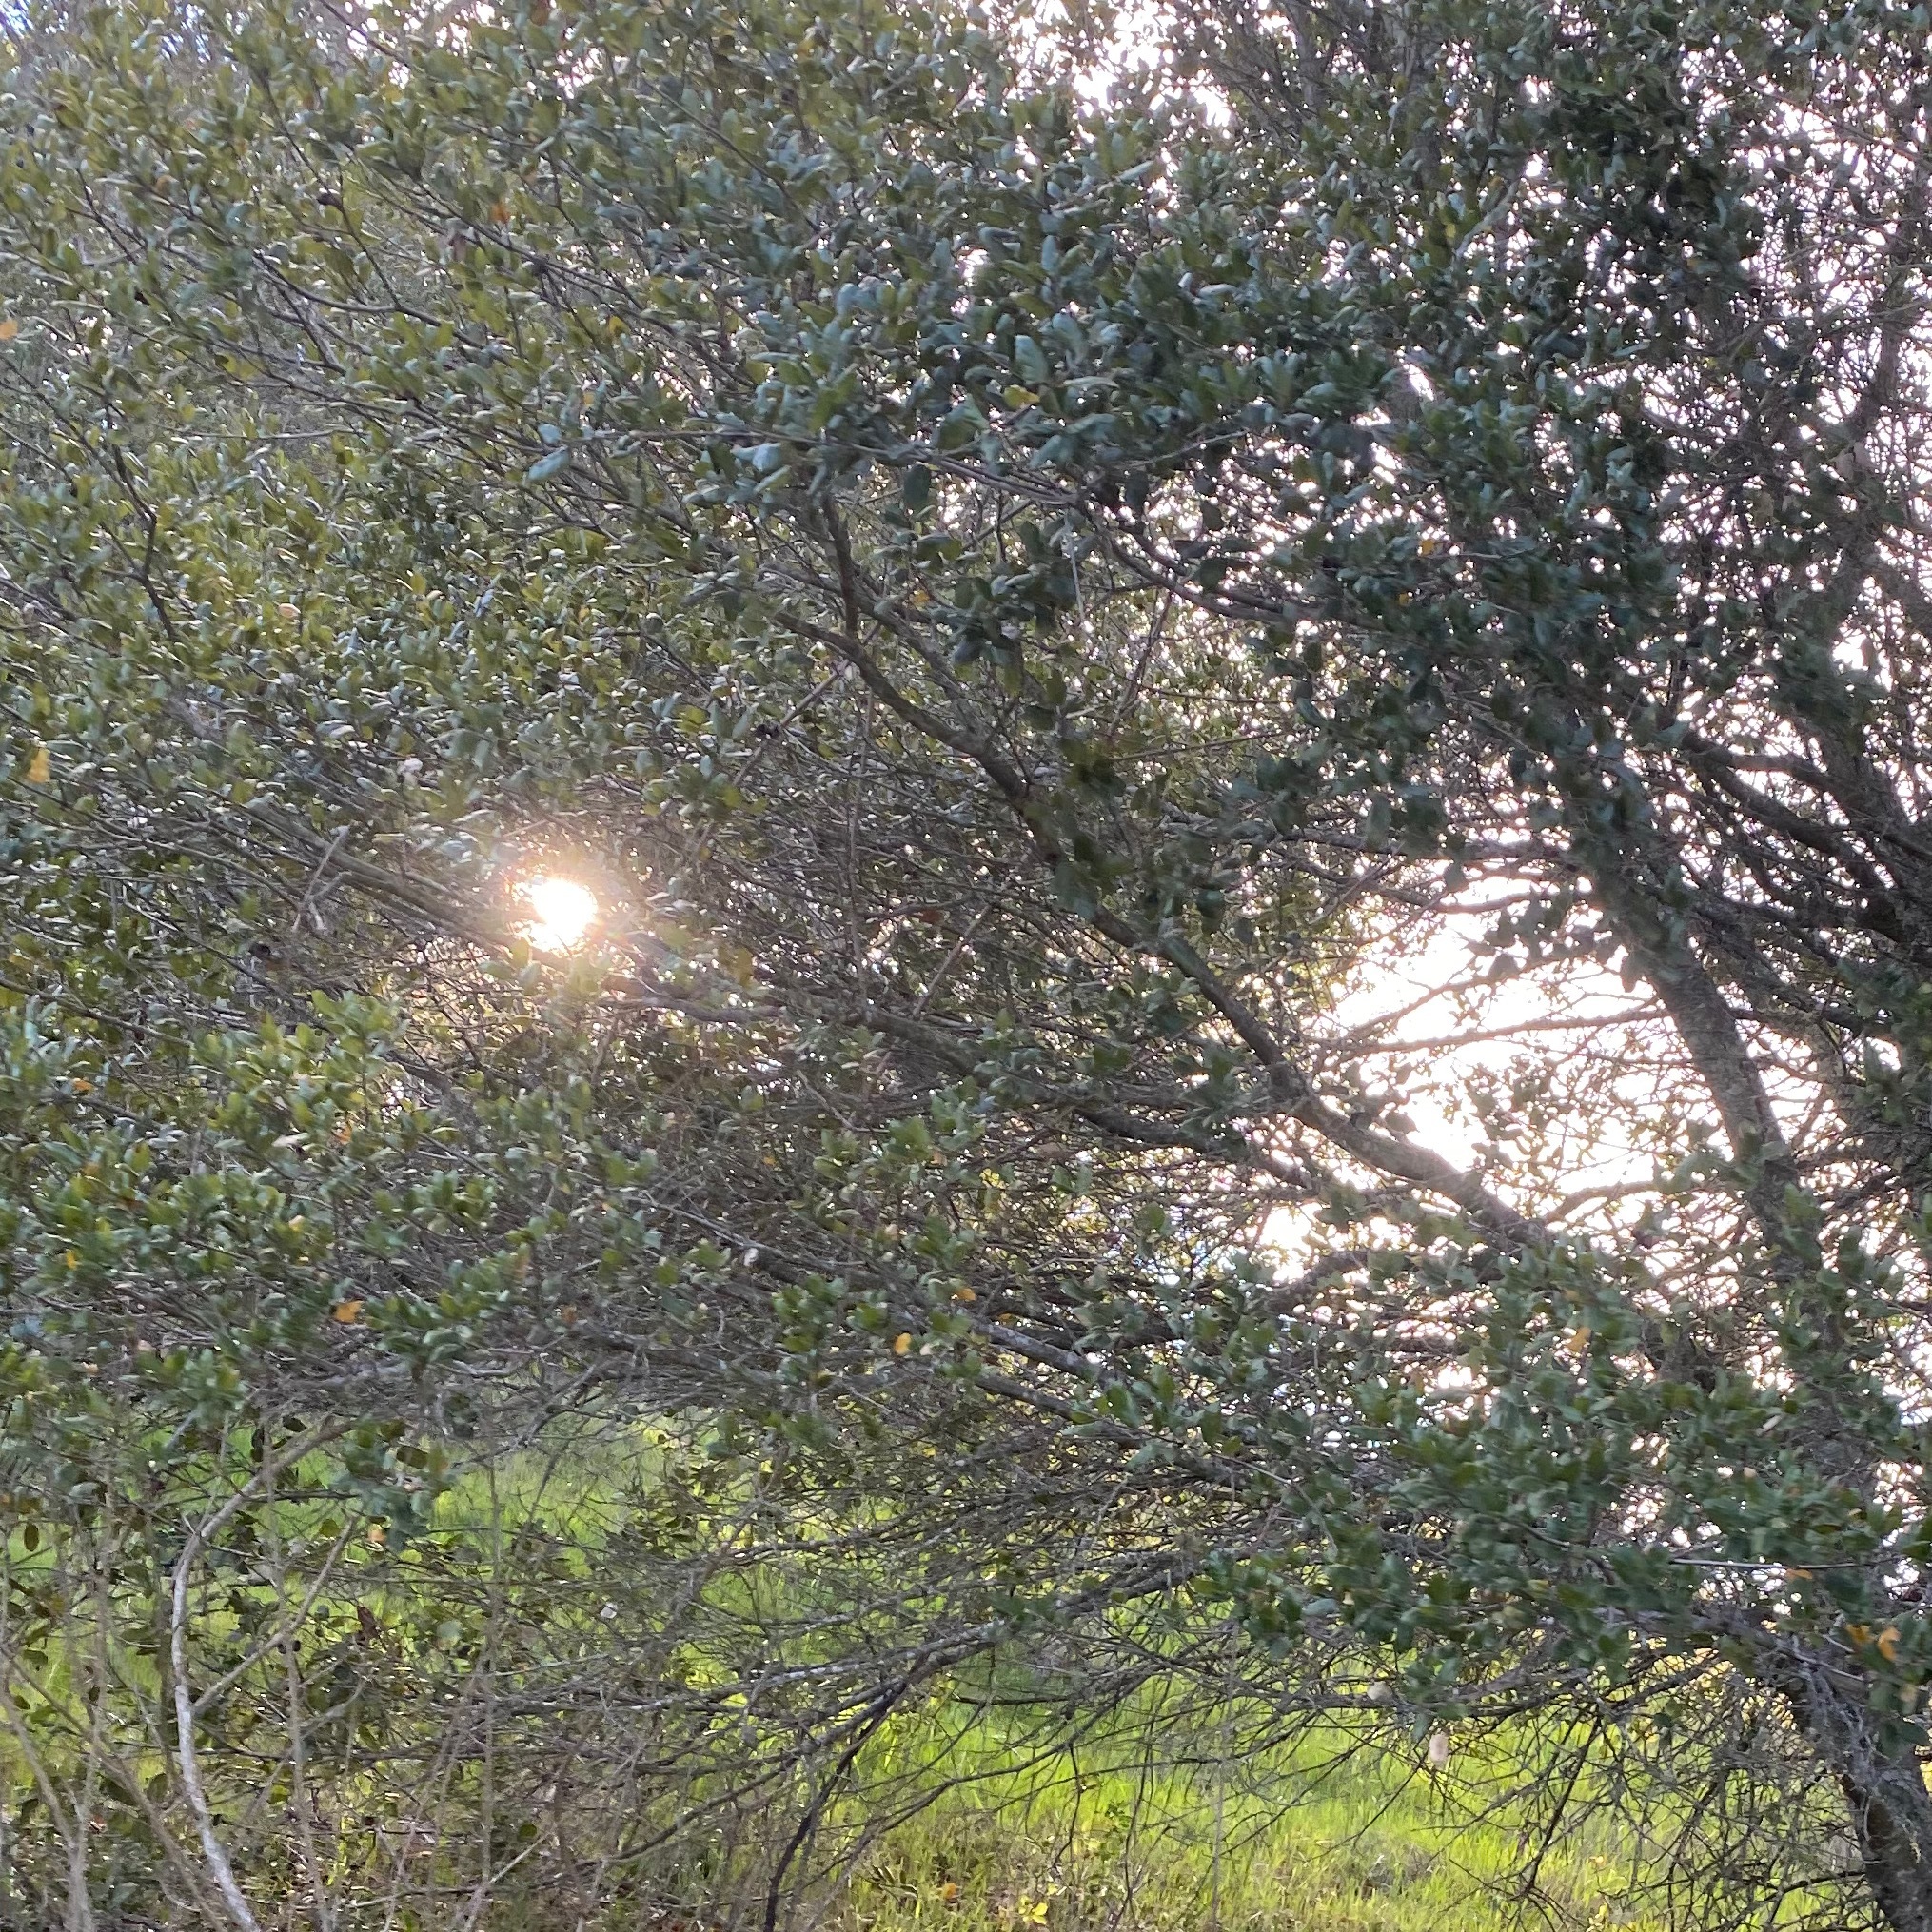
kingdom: Plantae
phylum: Tracheophyta
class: Magnoliopsida
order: Fagales
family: Fagaceae
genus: Quercus
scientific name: Quercus agrifolia
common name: California live oak
